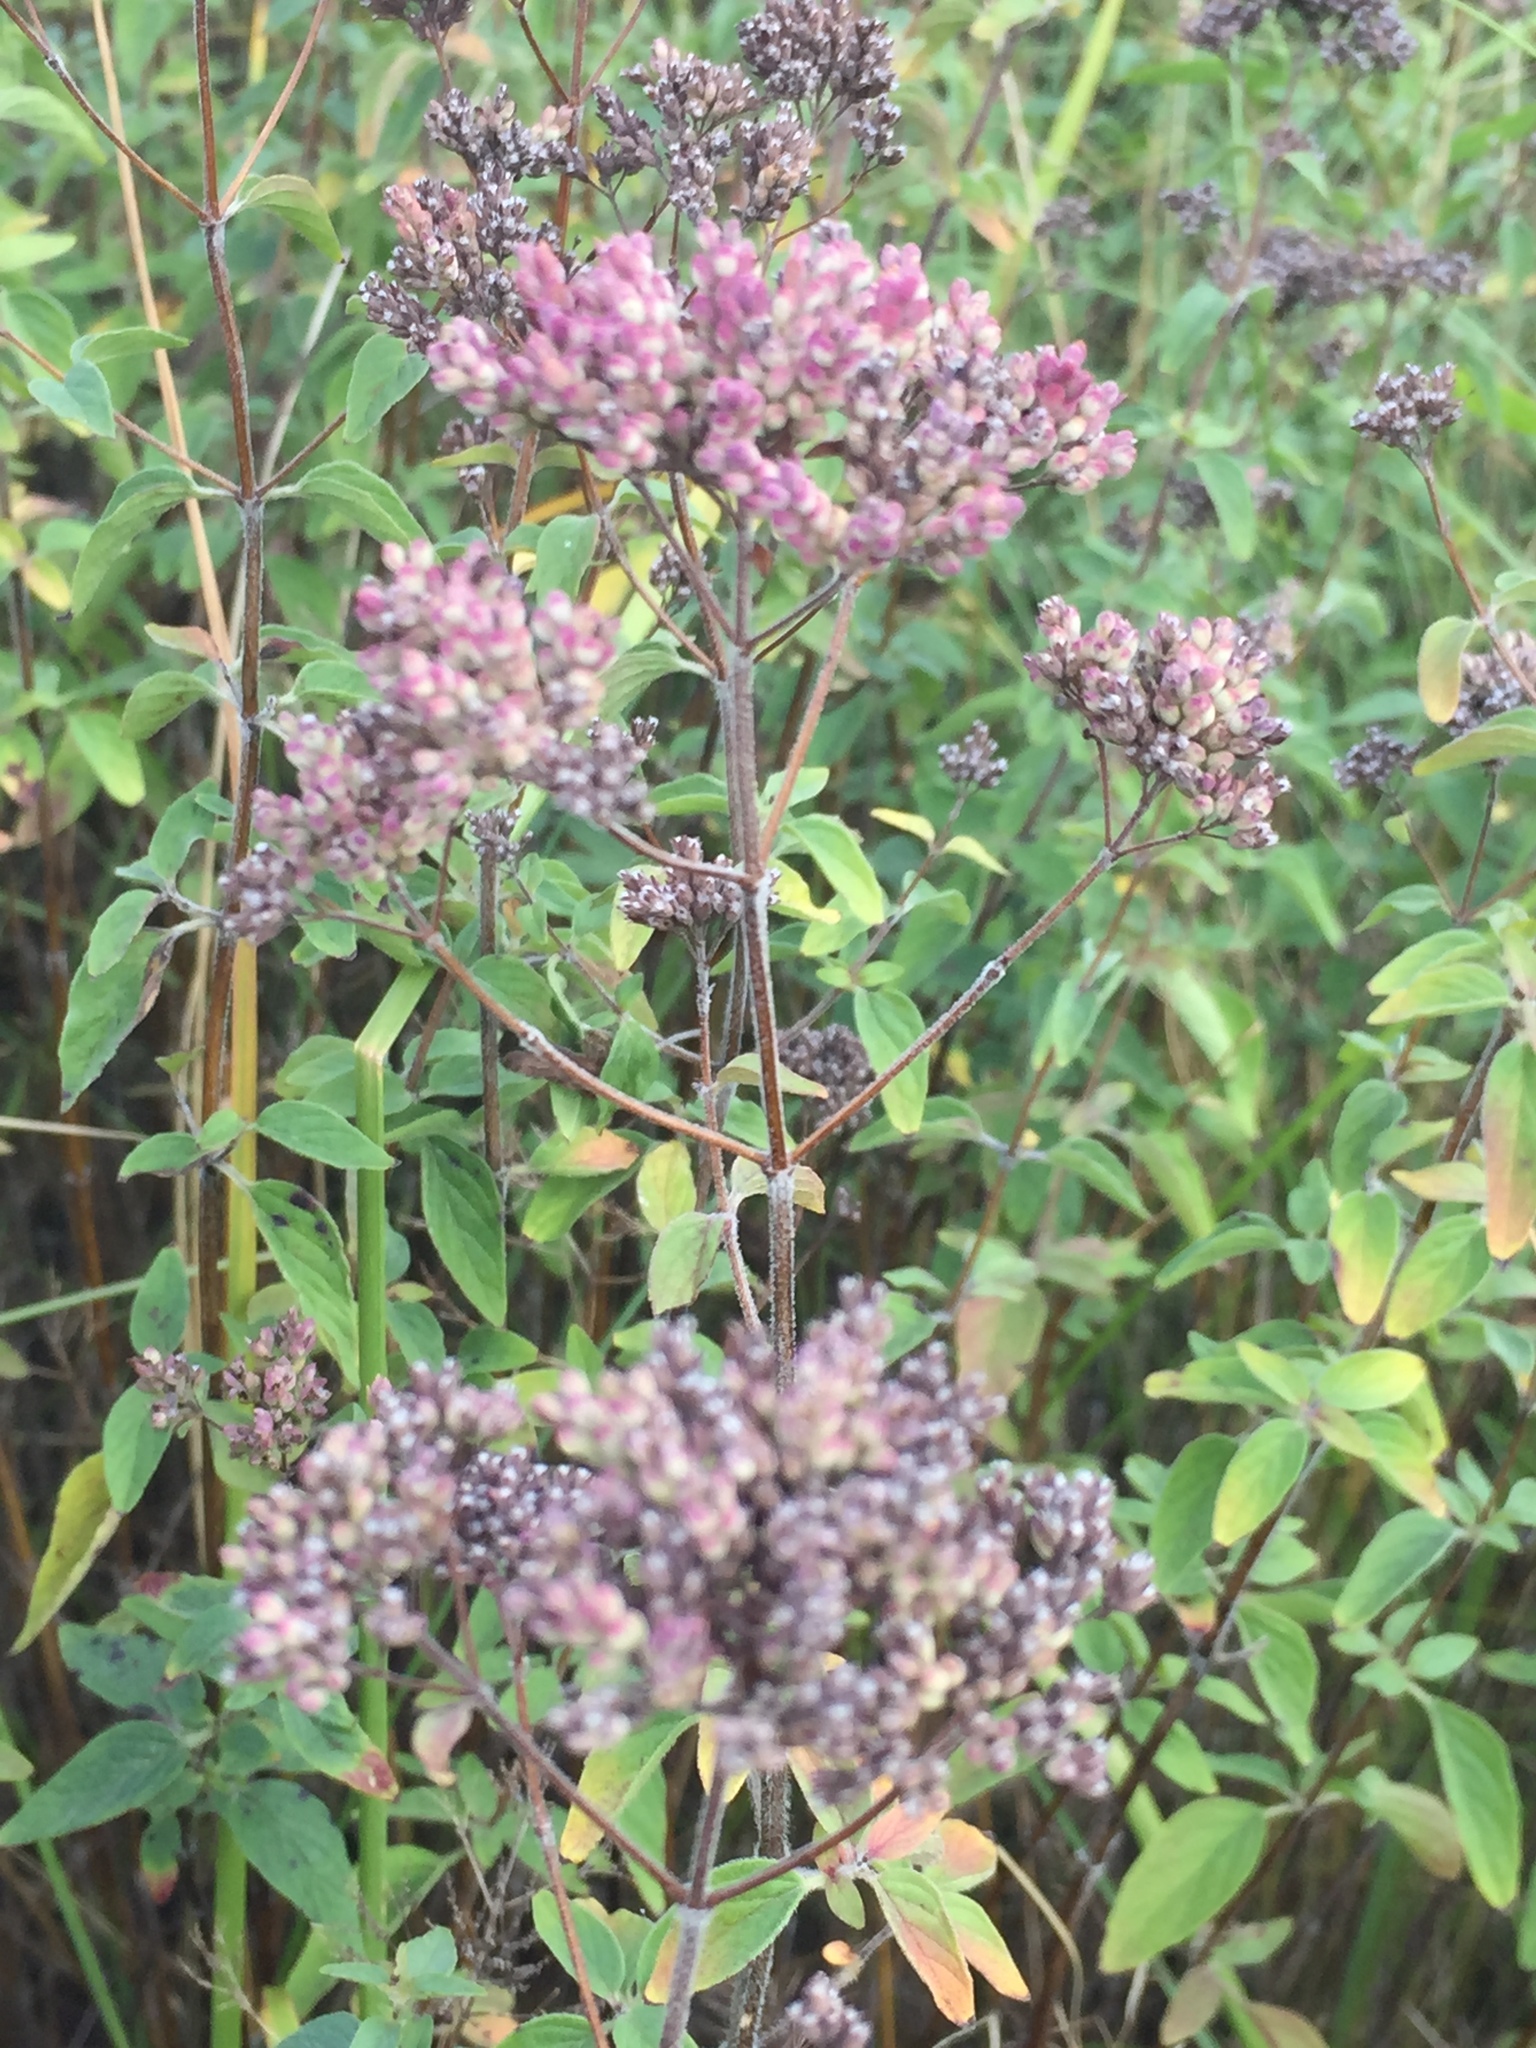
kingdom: Plantae
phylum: Tracheophyta
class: Magnoliopsida
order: Lamiales
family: Lamiaceae
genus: Origanum
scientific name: Origanum vulgare
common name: Wild marjoram
